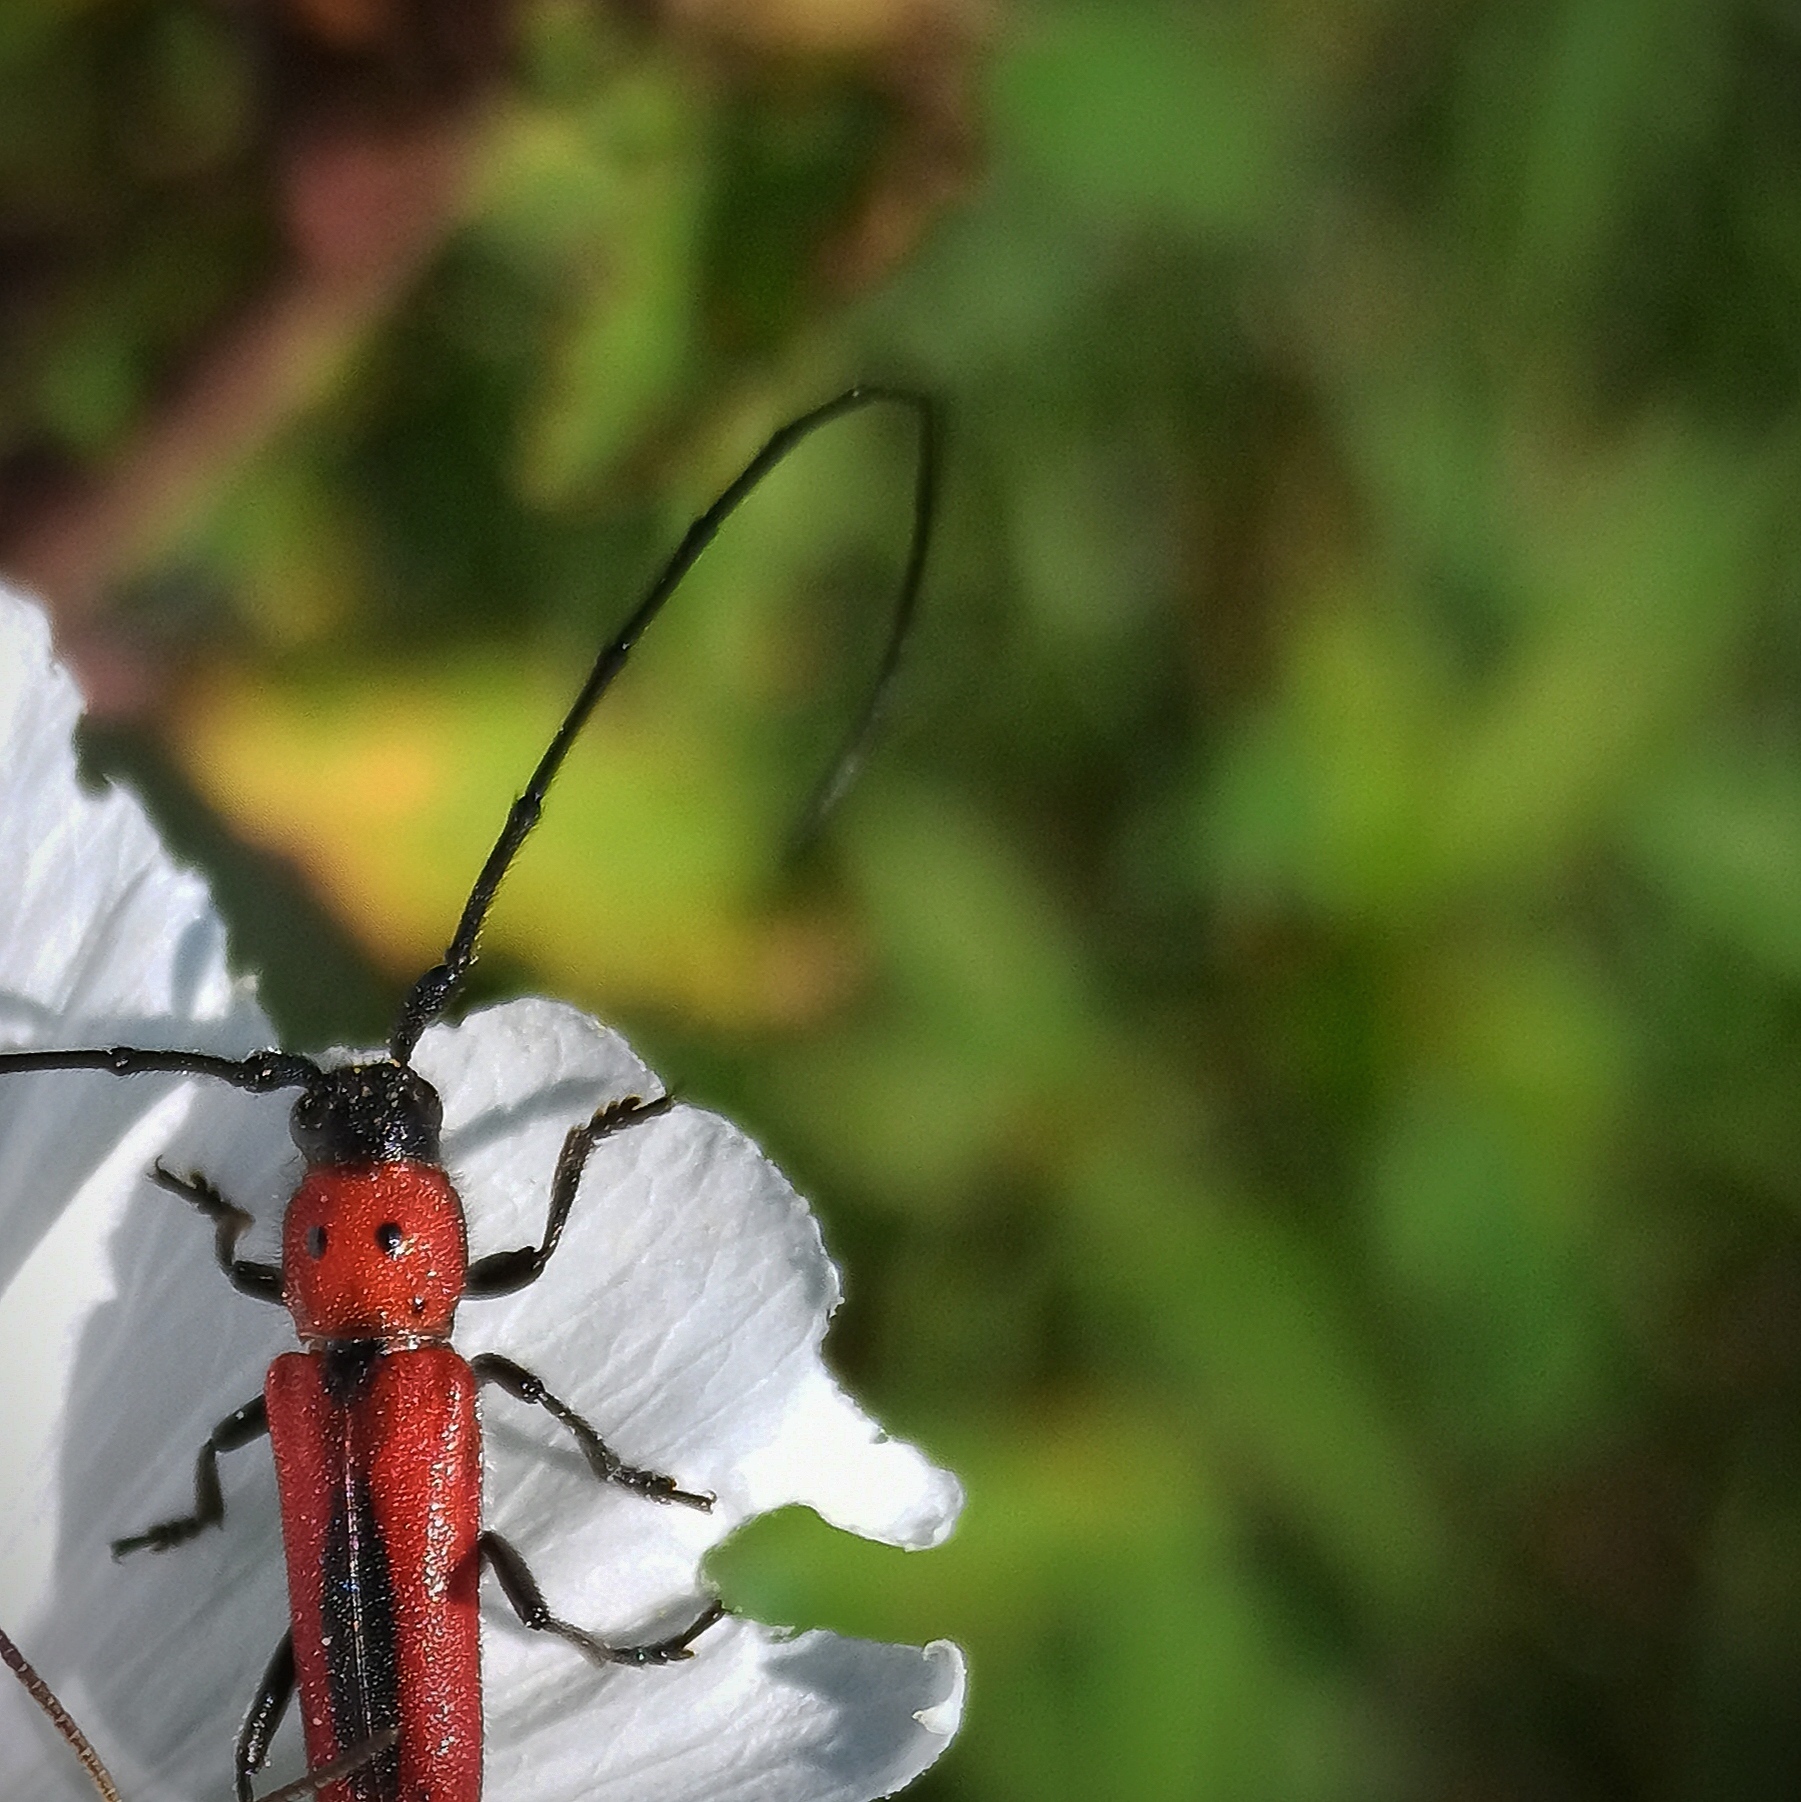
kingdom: Animalia
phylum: Arthropoda
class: Insecta
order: Coleoptera
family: Cerambycidae
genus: Tylosis
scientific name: Tylosis suturalis
